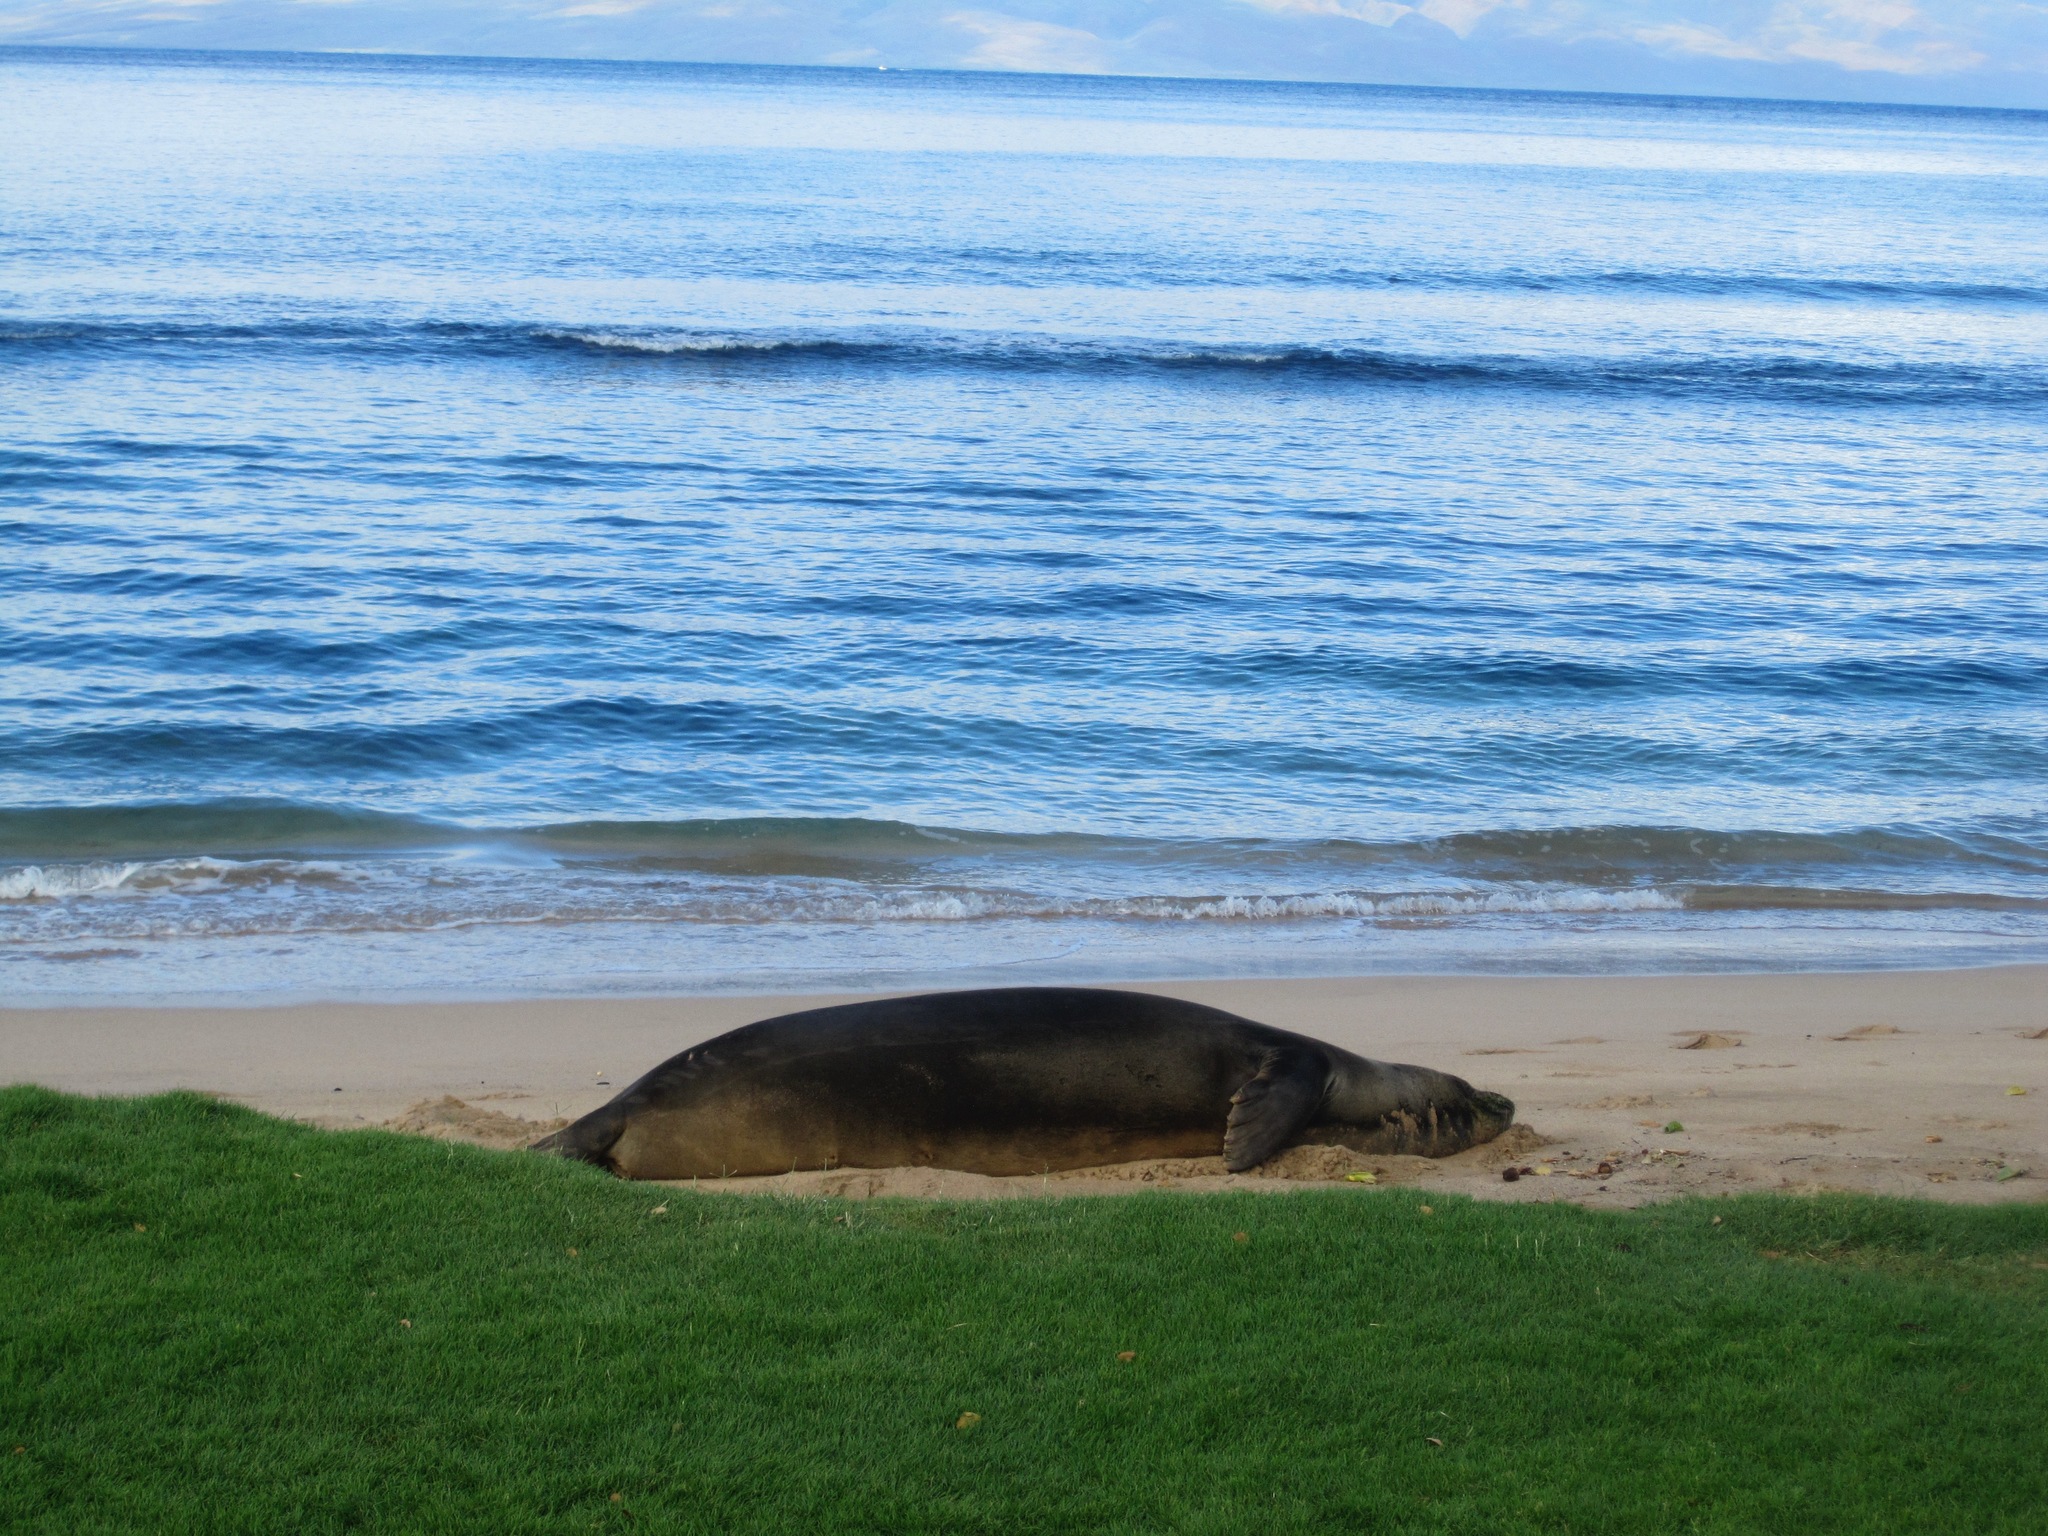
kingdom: Animalia
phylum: Chordata
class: Mammalia
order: Carnivora
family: Phocidae
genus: Neomonachus
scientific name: Neomonachus schauinslandi
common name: Hawaiian monk seal
